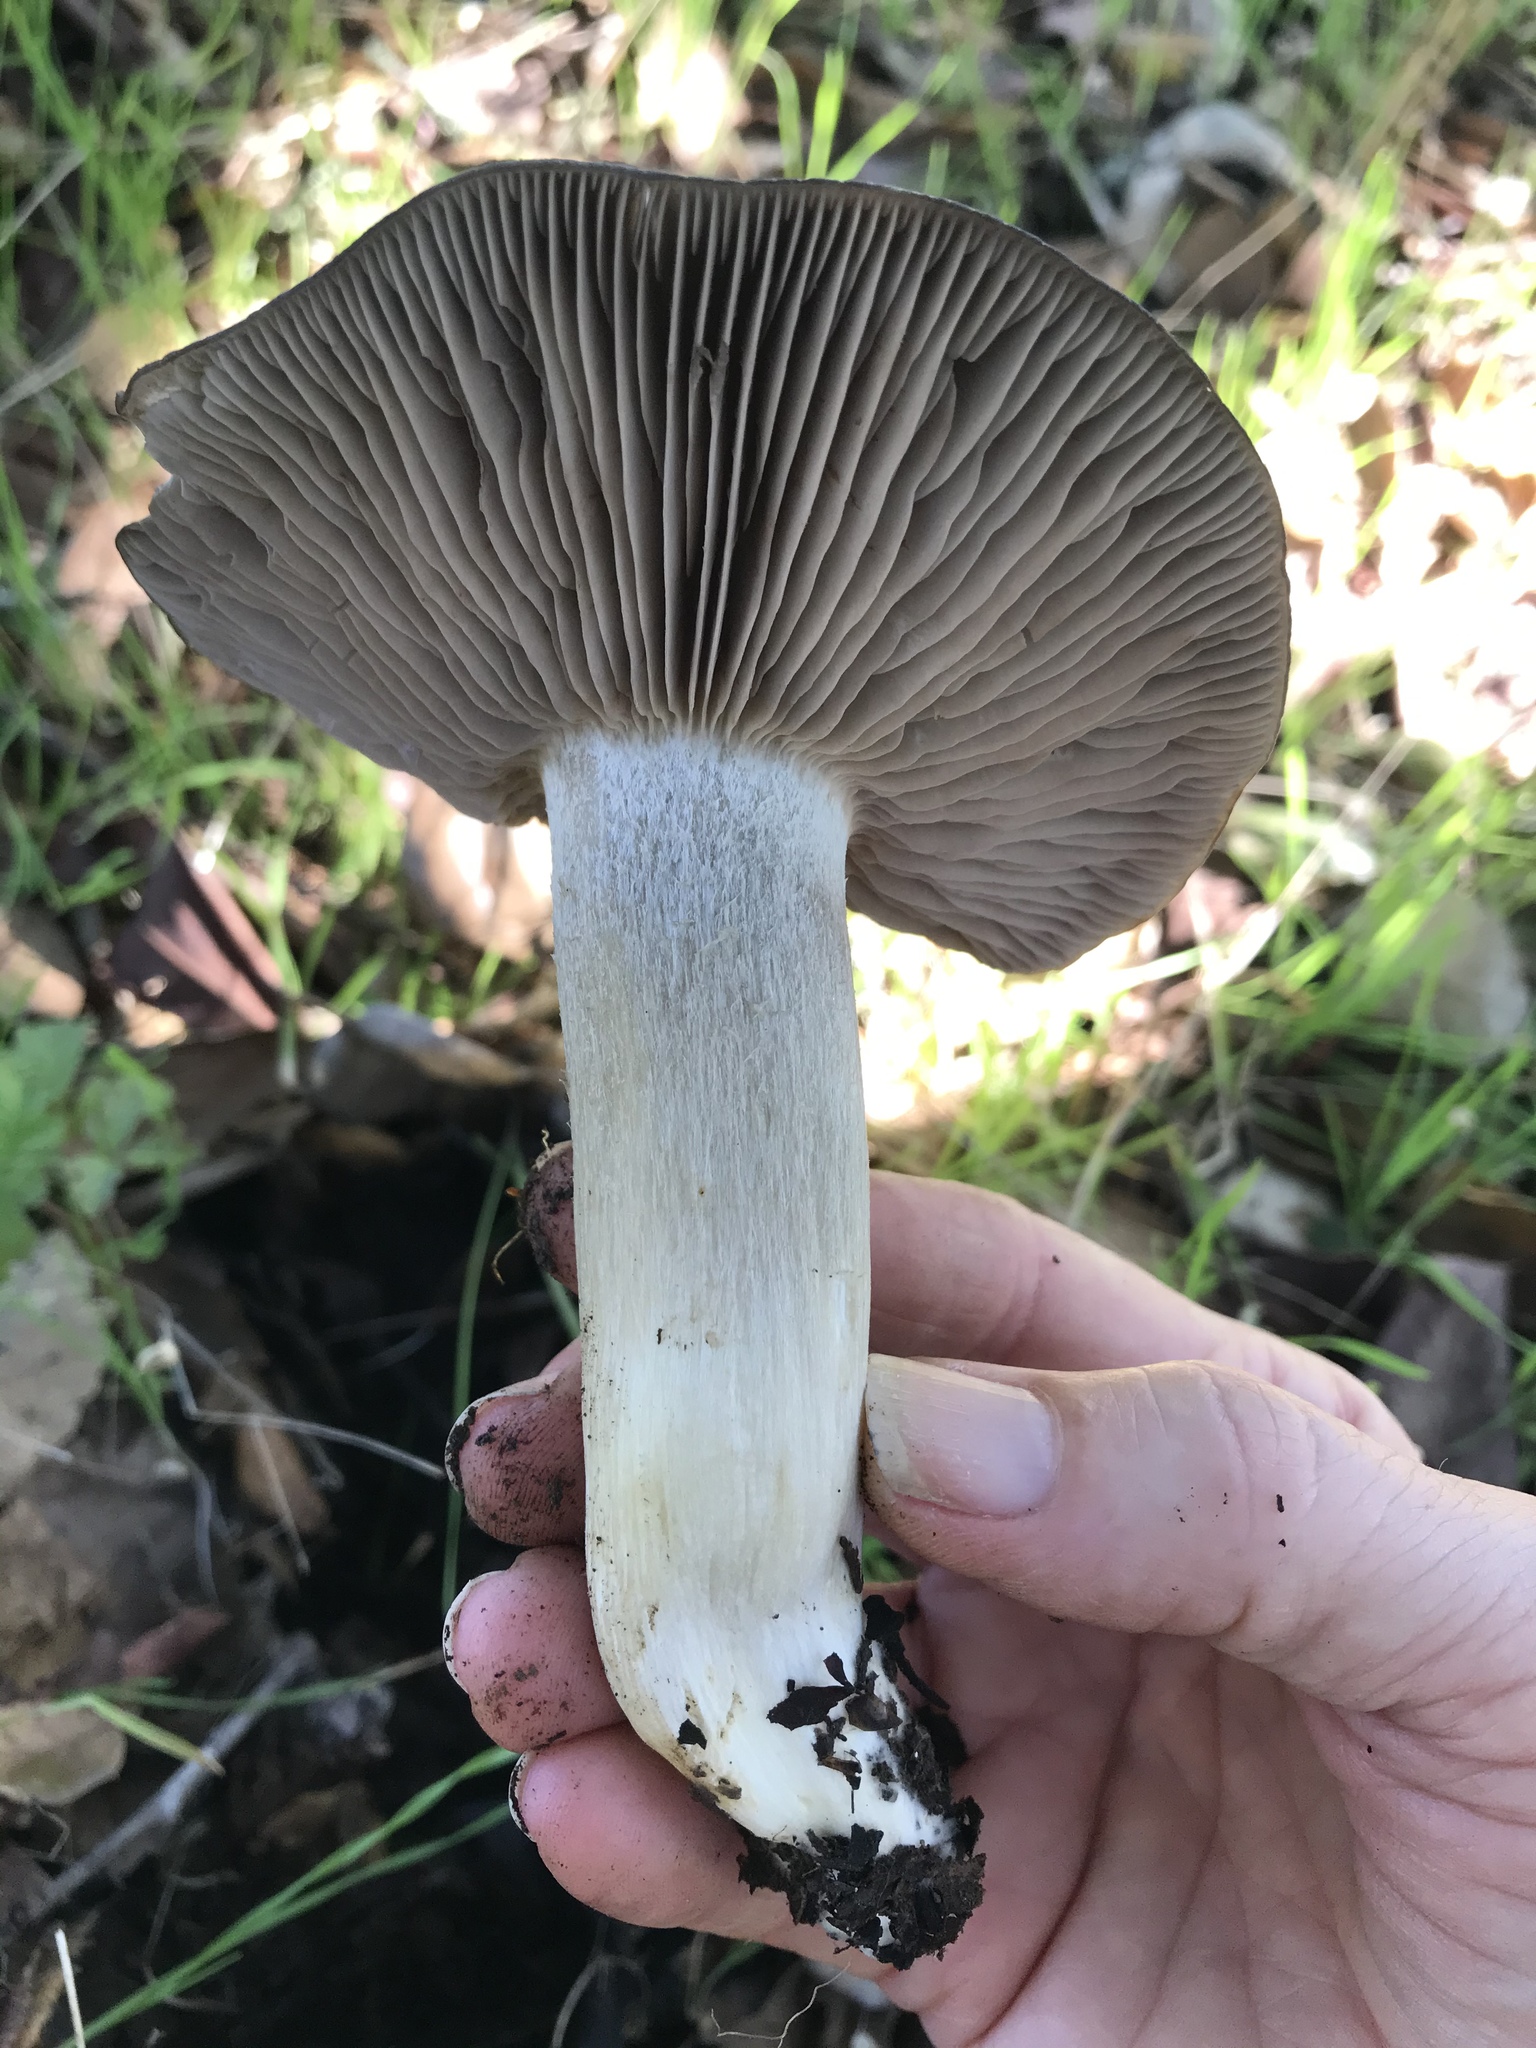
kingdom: Fungi
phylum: Basidiomycota
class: Agaricomycetes
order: Agaricales
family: Entolomataceae
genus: Entoloma
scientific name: Entoloma ferruginans
